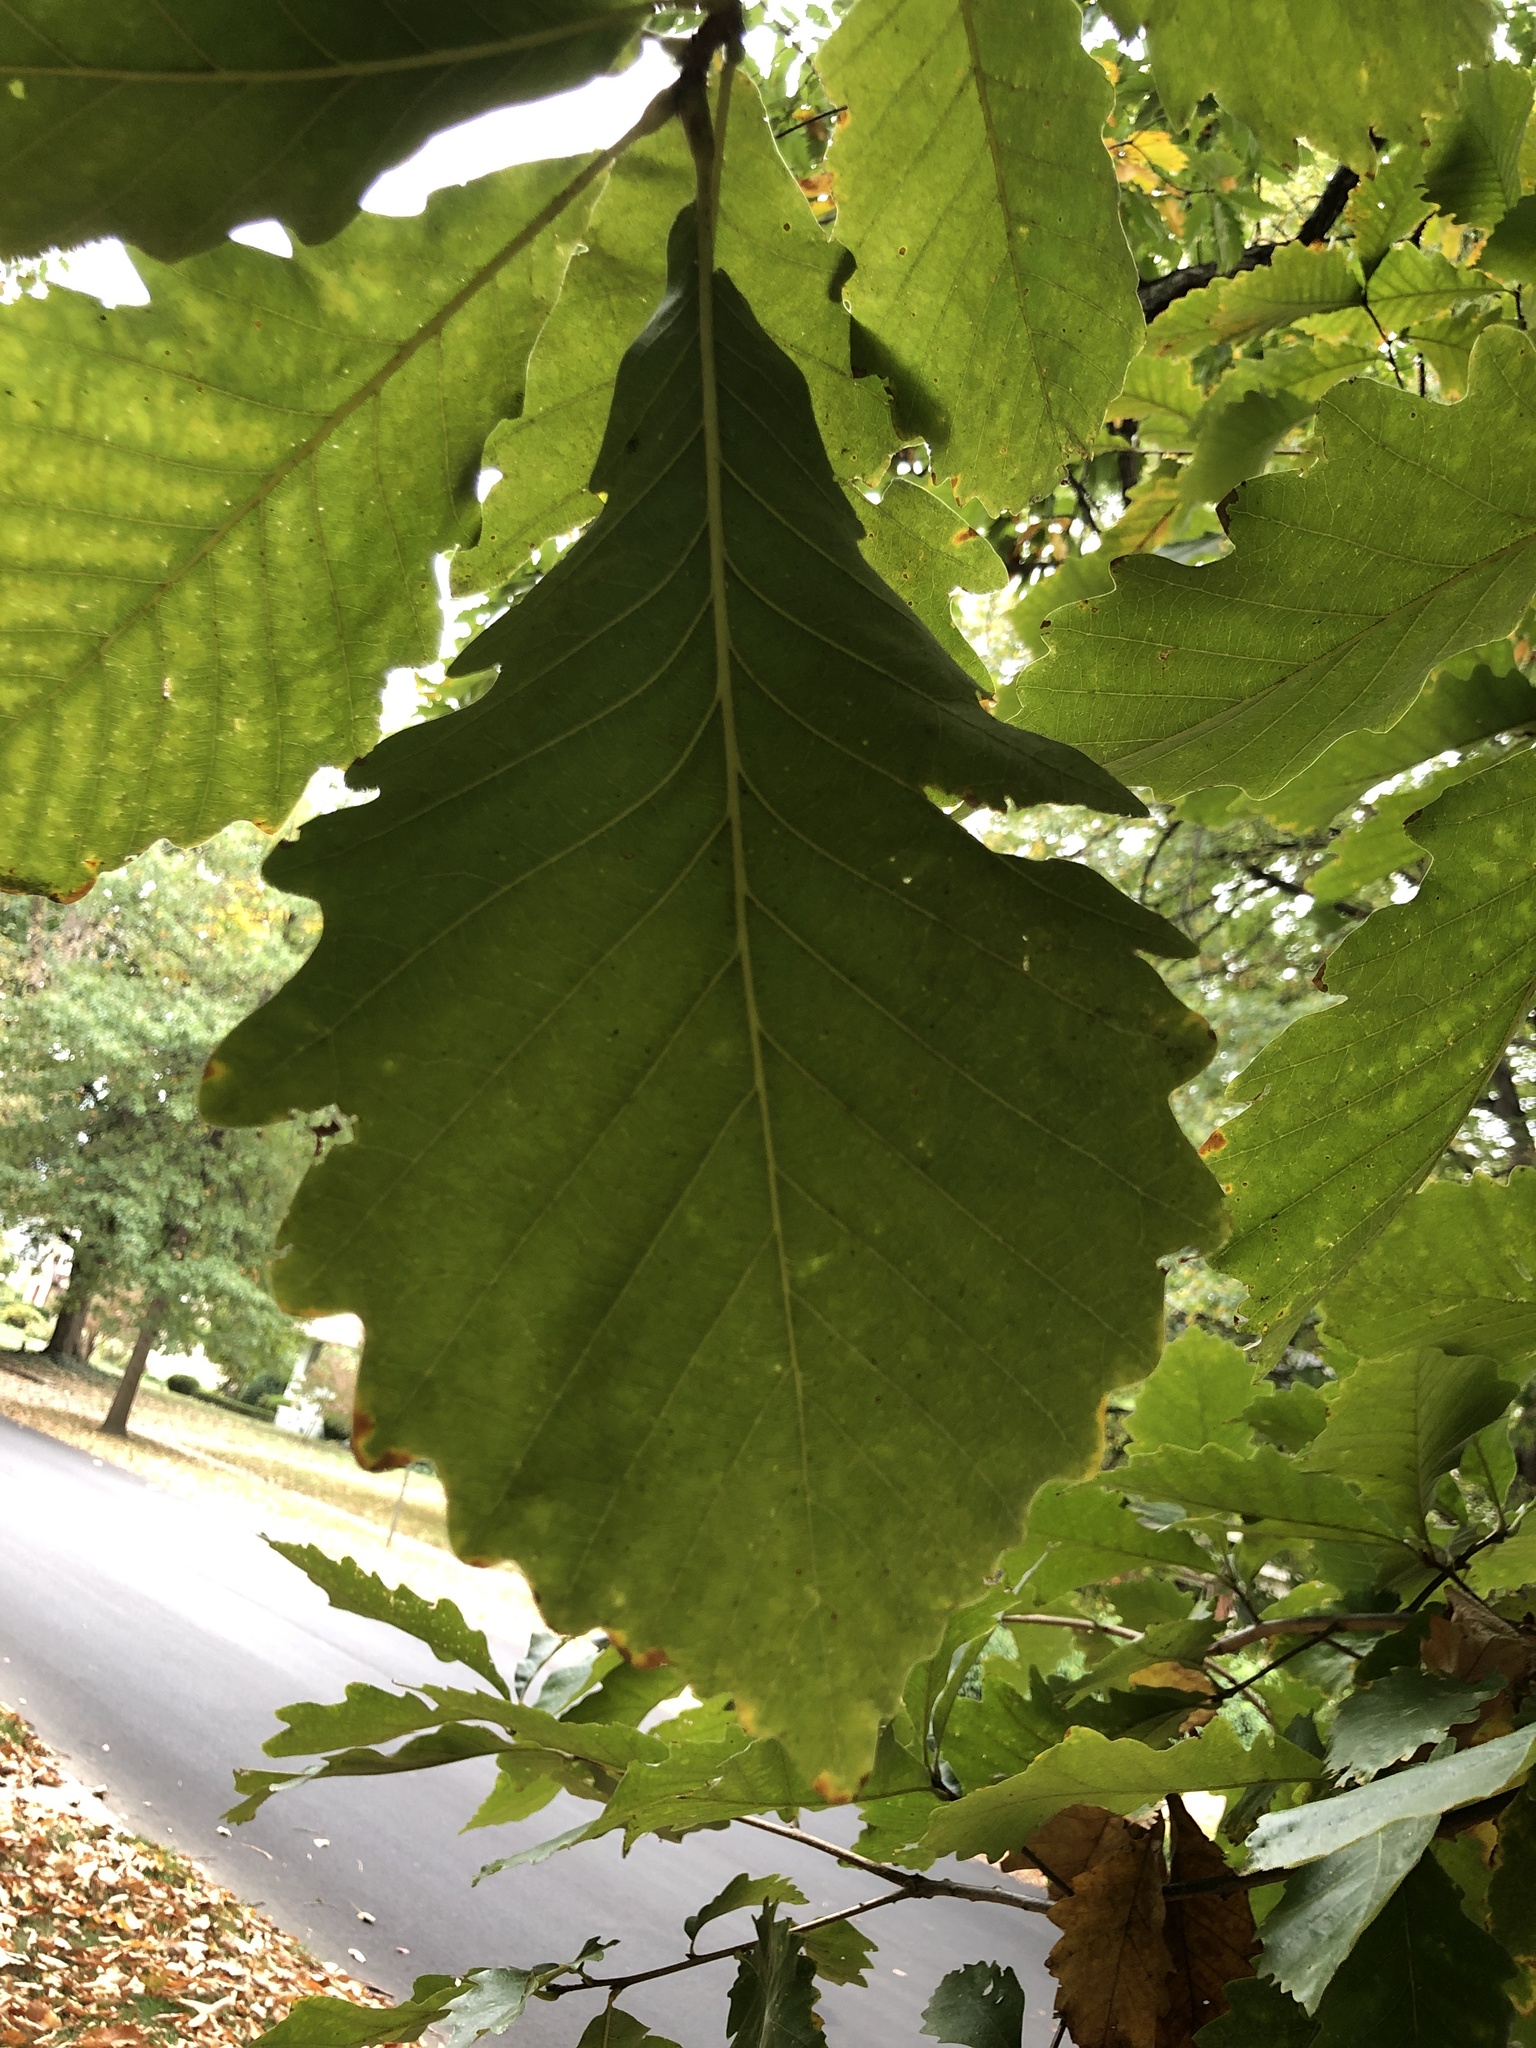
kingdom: Plantae
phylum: Tracheophyta
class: Magnoliopsida
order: Fagales
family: Fagaceae
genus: Quercus
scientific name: Quercus michauxii
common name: Swamp chestnut oak
